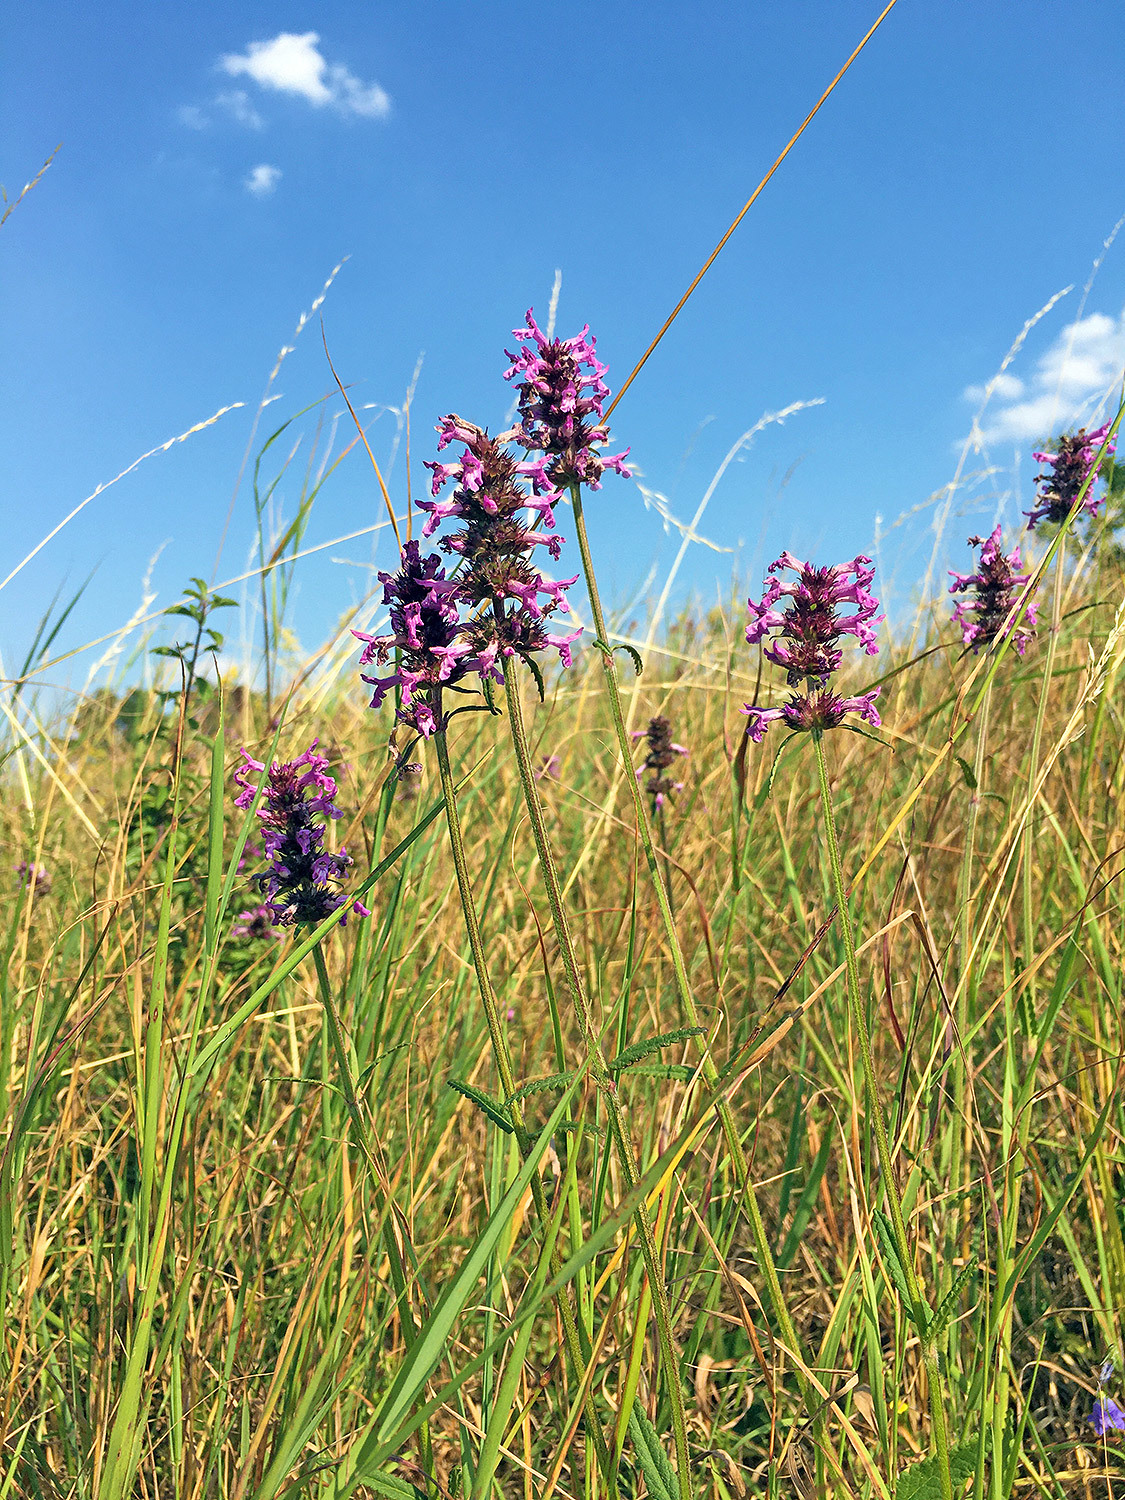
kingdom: Plantae
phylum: Tracheophyta
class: Magnoliopsida
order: Lamiales
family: Lamiaceae
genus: Betonica
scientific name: Betonica officinalis
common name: Bishop's-wort
